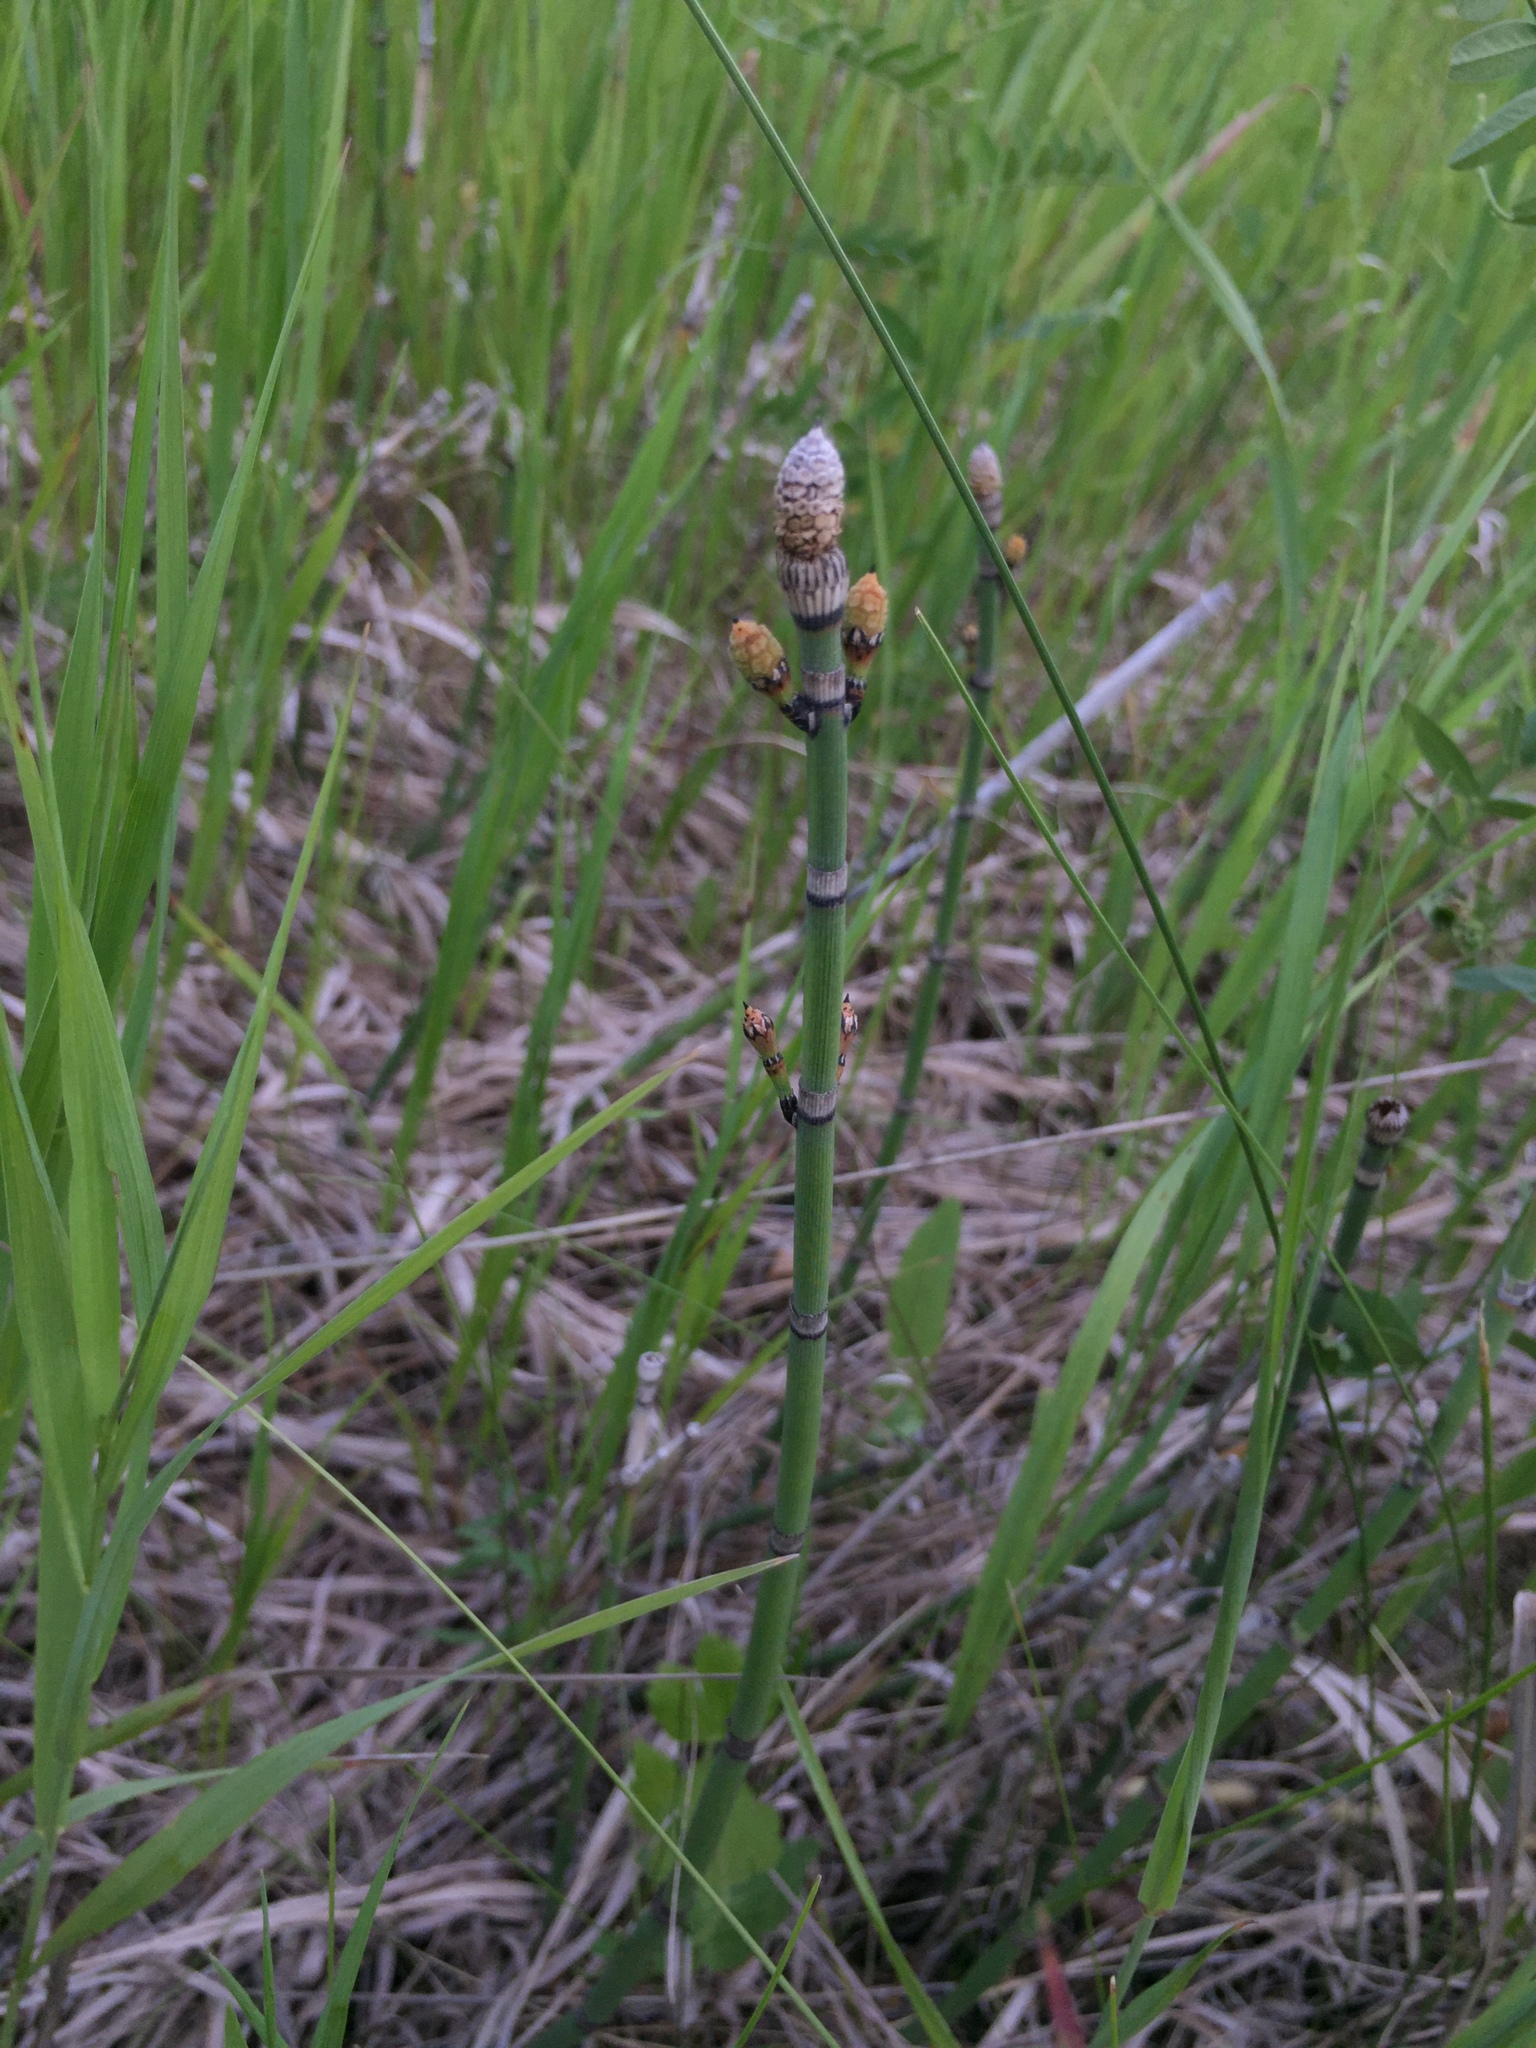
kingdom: Plantae
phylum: Tracheophyta
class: Polypodiopsida
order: Equisetales
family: Equisetaceae
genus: Equisetum
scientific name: Equisetum praealtum
